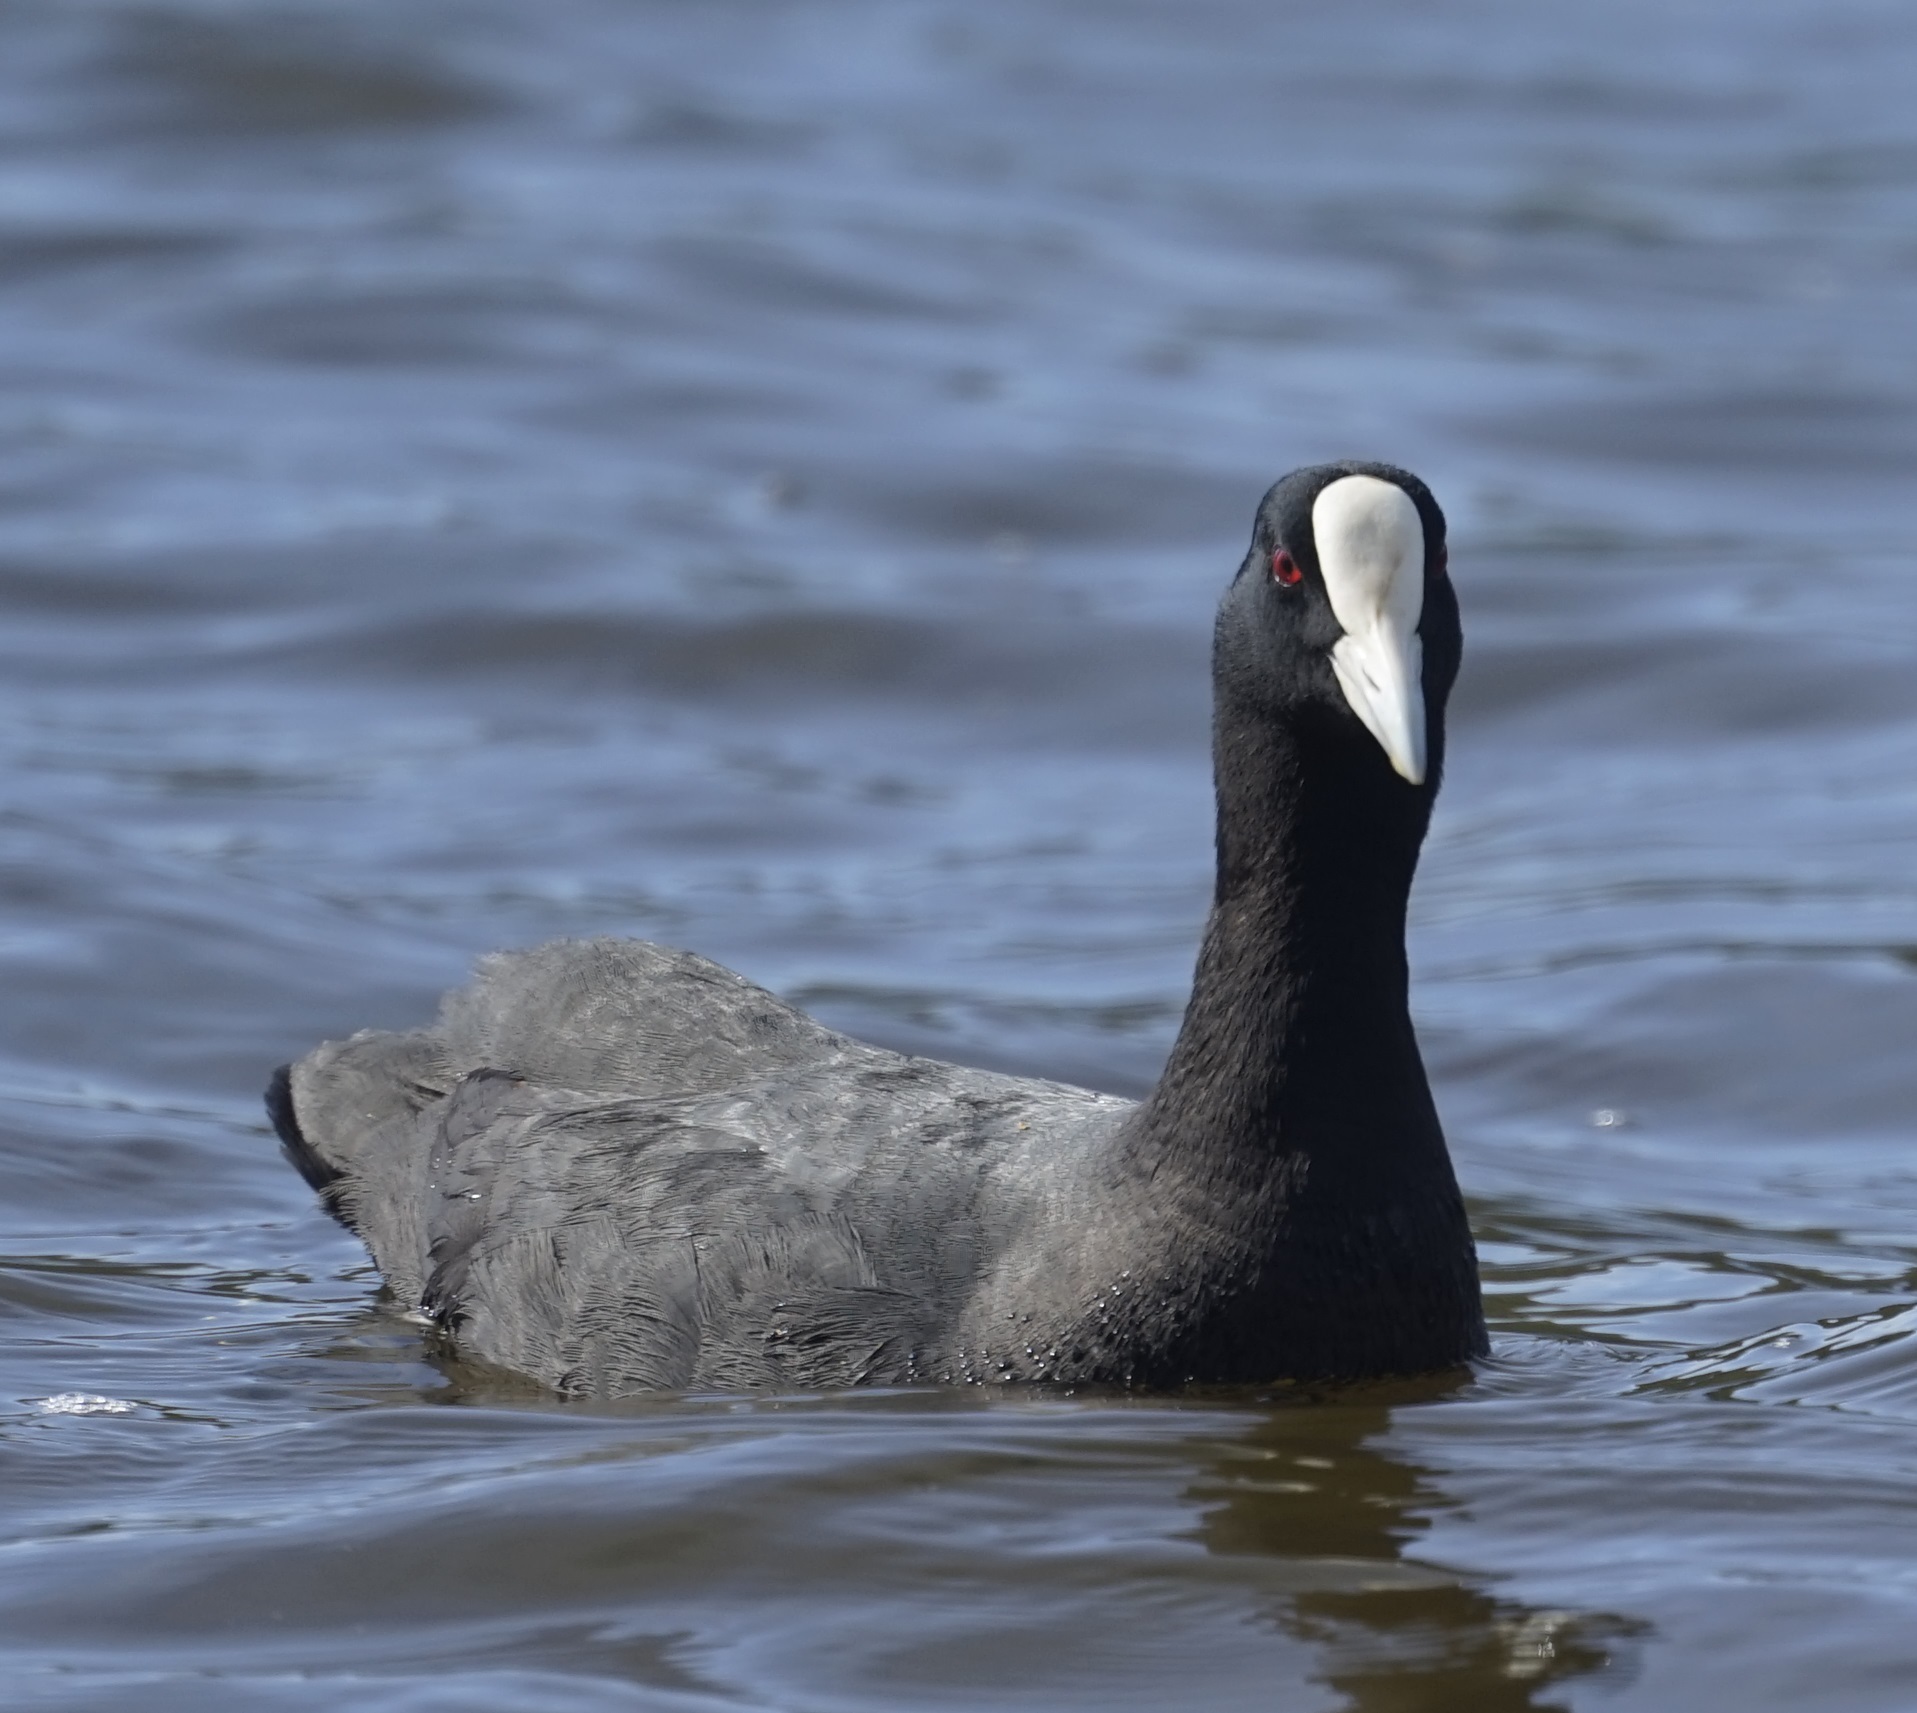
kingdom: Animalia
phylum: Chordata
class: Aves
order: Gruiformes
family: Rallidae
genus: Fulica
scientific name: Fulica atra
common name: Eurasian coot
